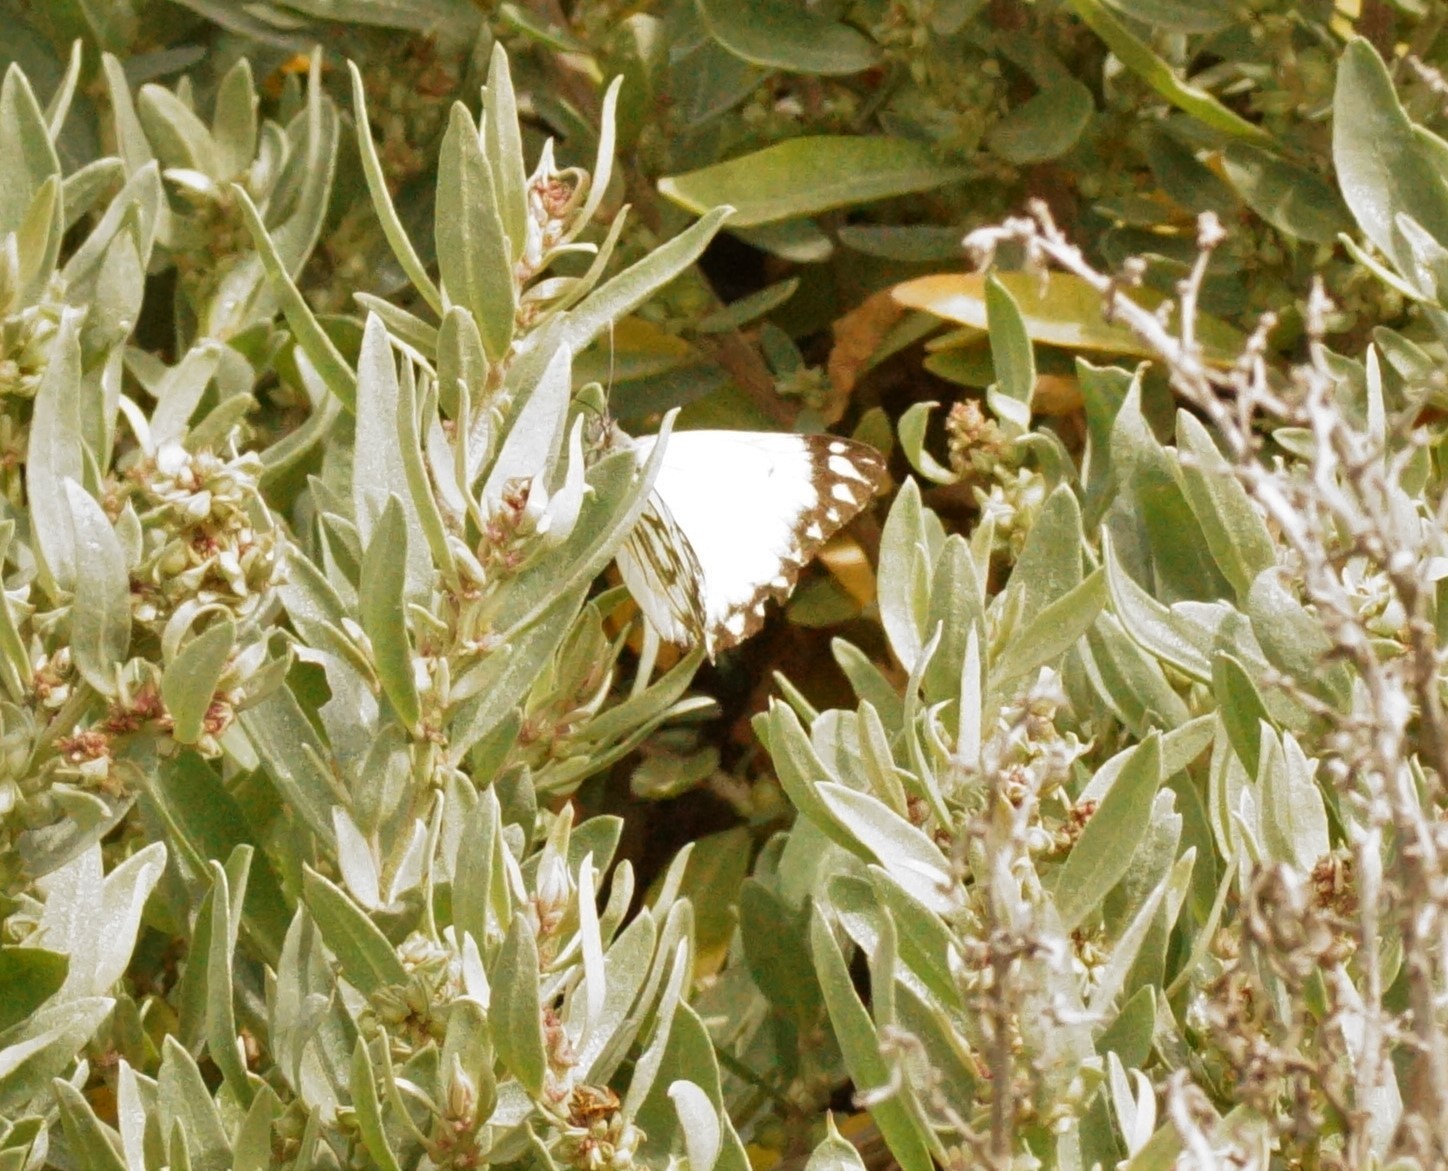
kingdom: Animalia
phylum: Arthropoda
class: Insecta
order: Lepidoptera
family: Pieridae
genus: Belenois
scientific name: Belenois java
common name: Caper white
